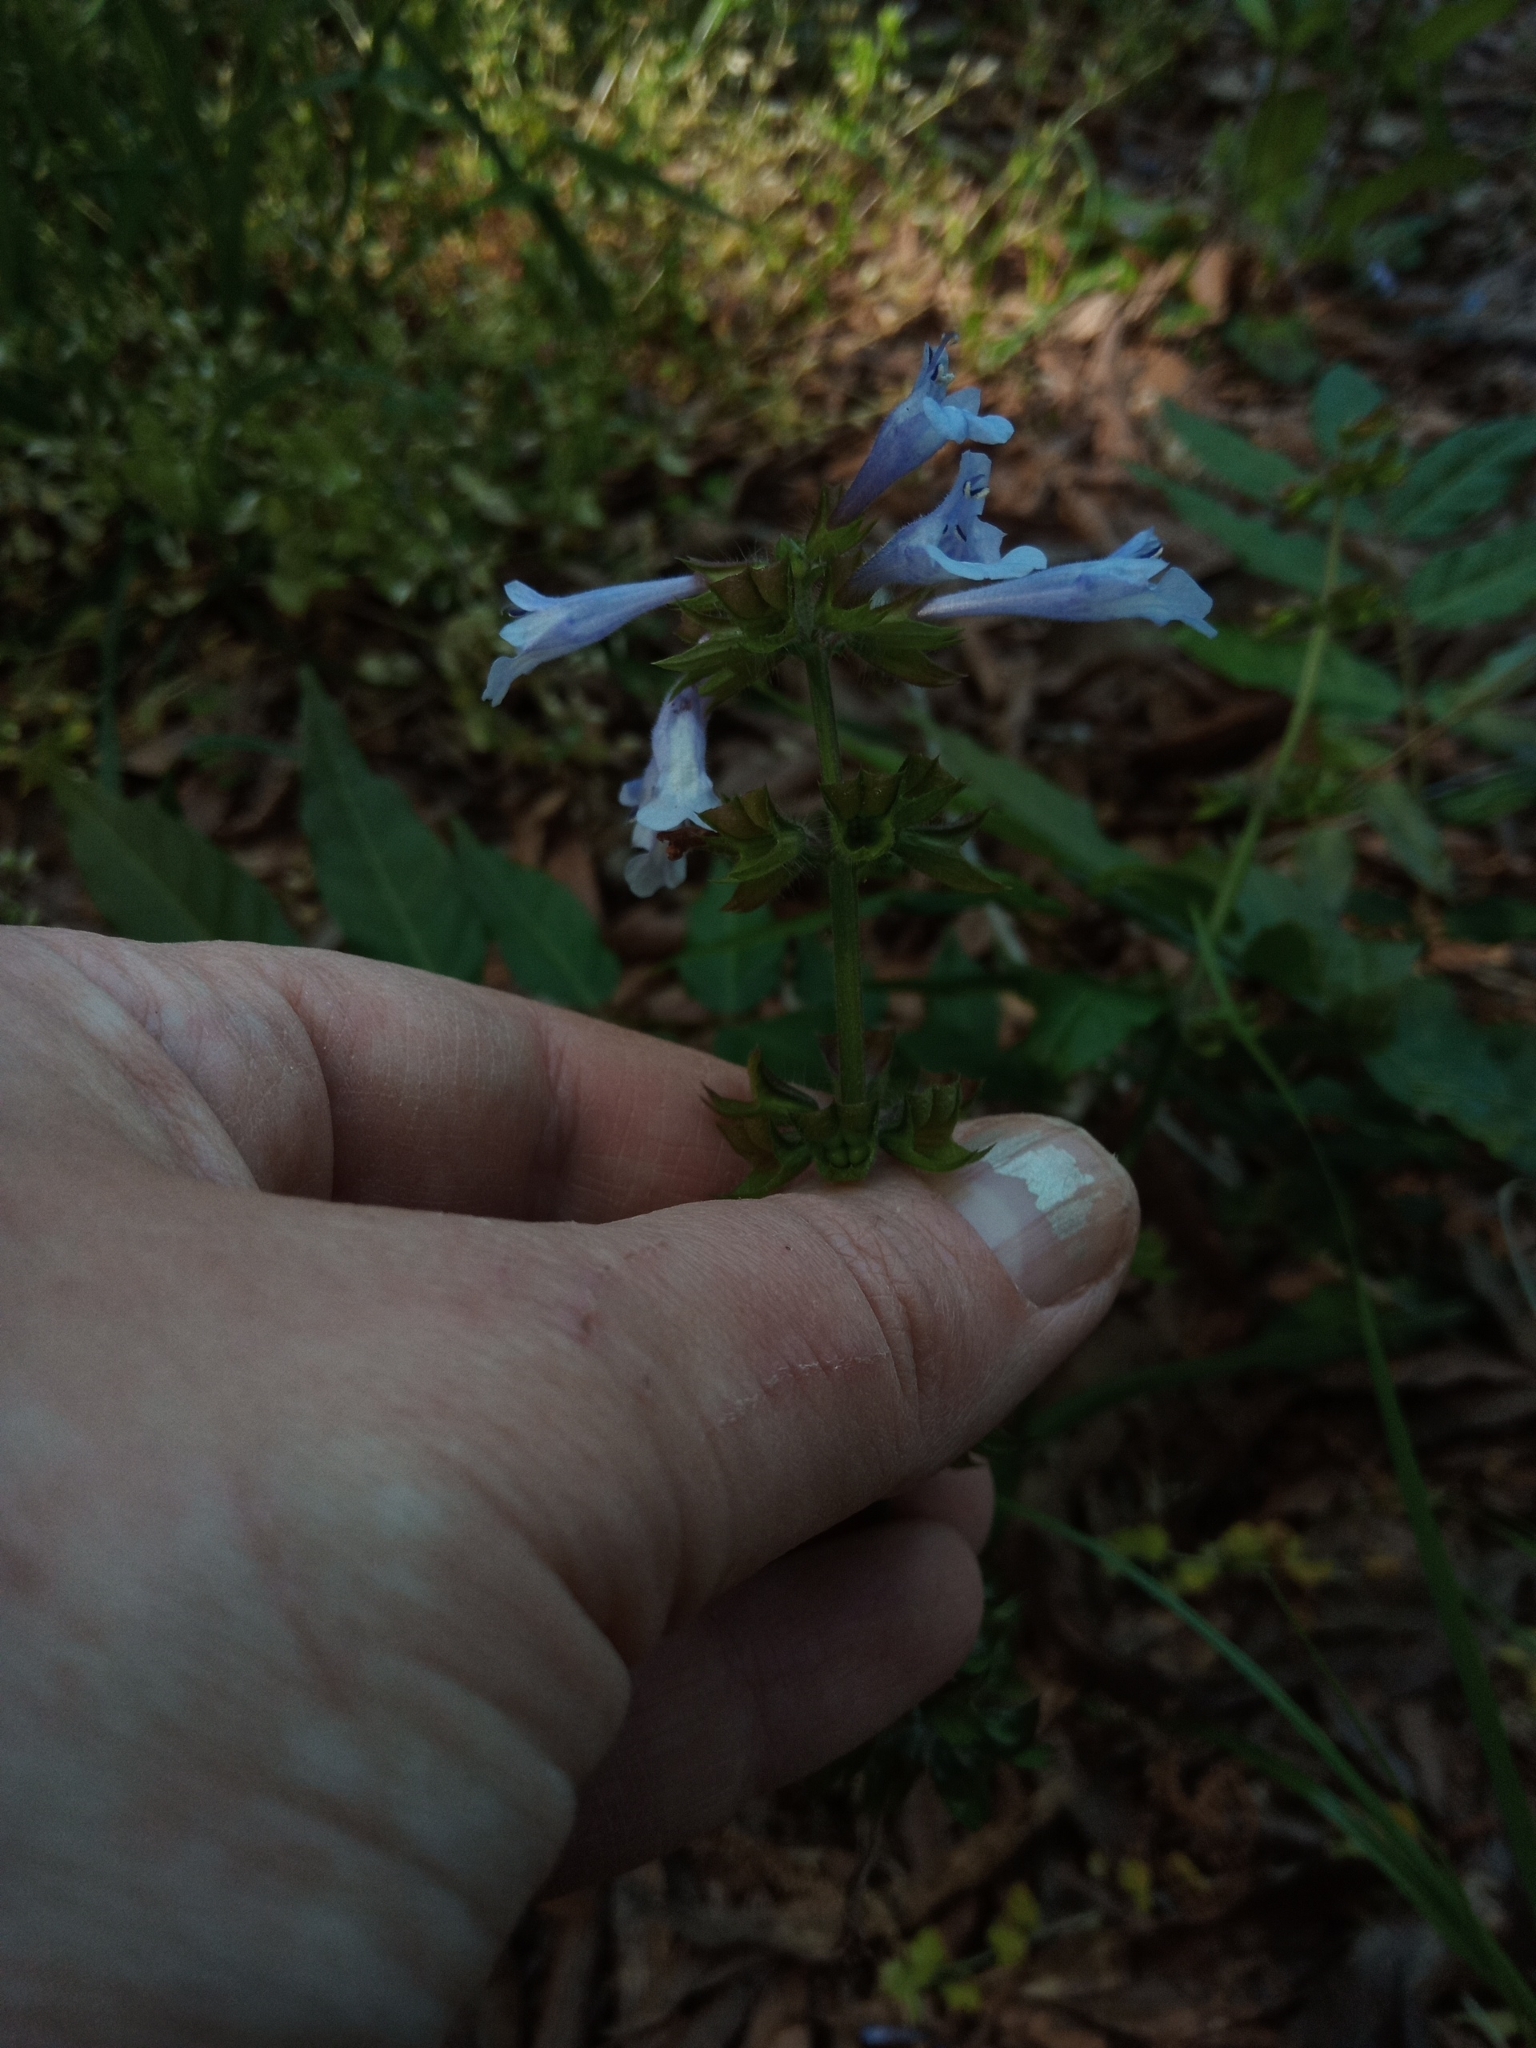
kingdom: Plantae
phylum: Tracheophyta
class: Magnoliopsida
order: Lamiales
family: Lamiaceae
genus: Salvia
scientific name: Salvia lyrata
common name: Cancerweed
